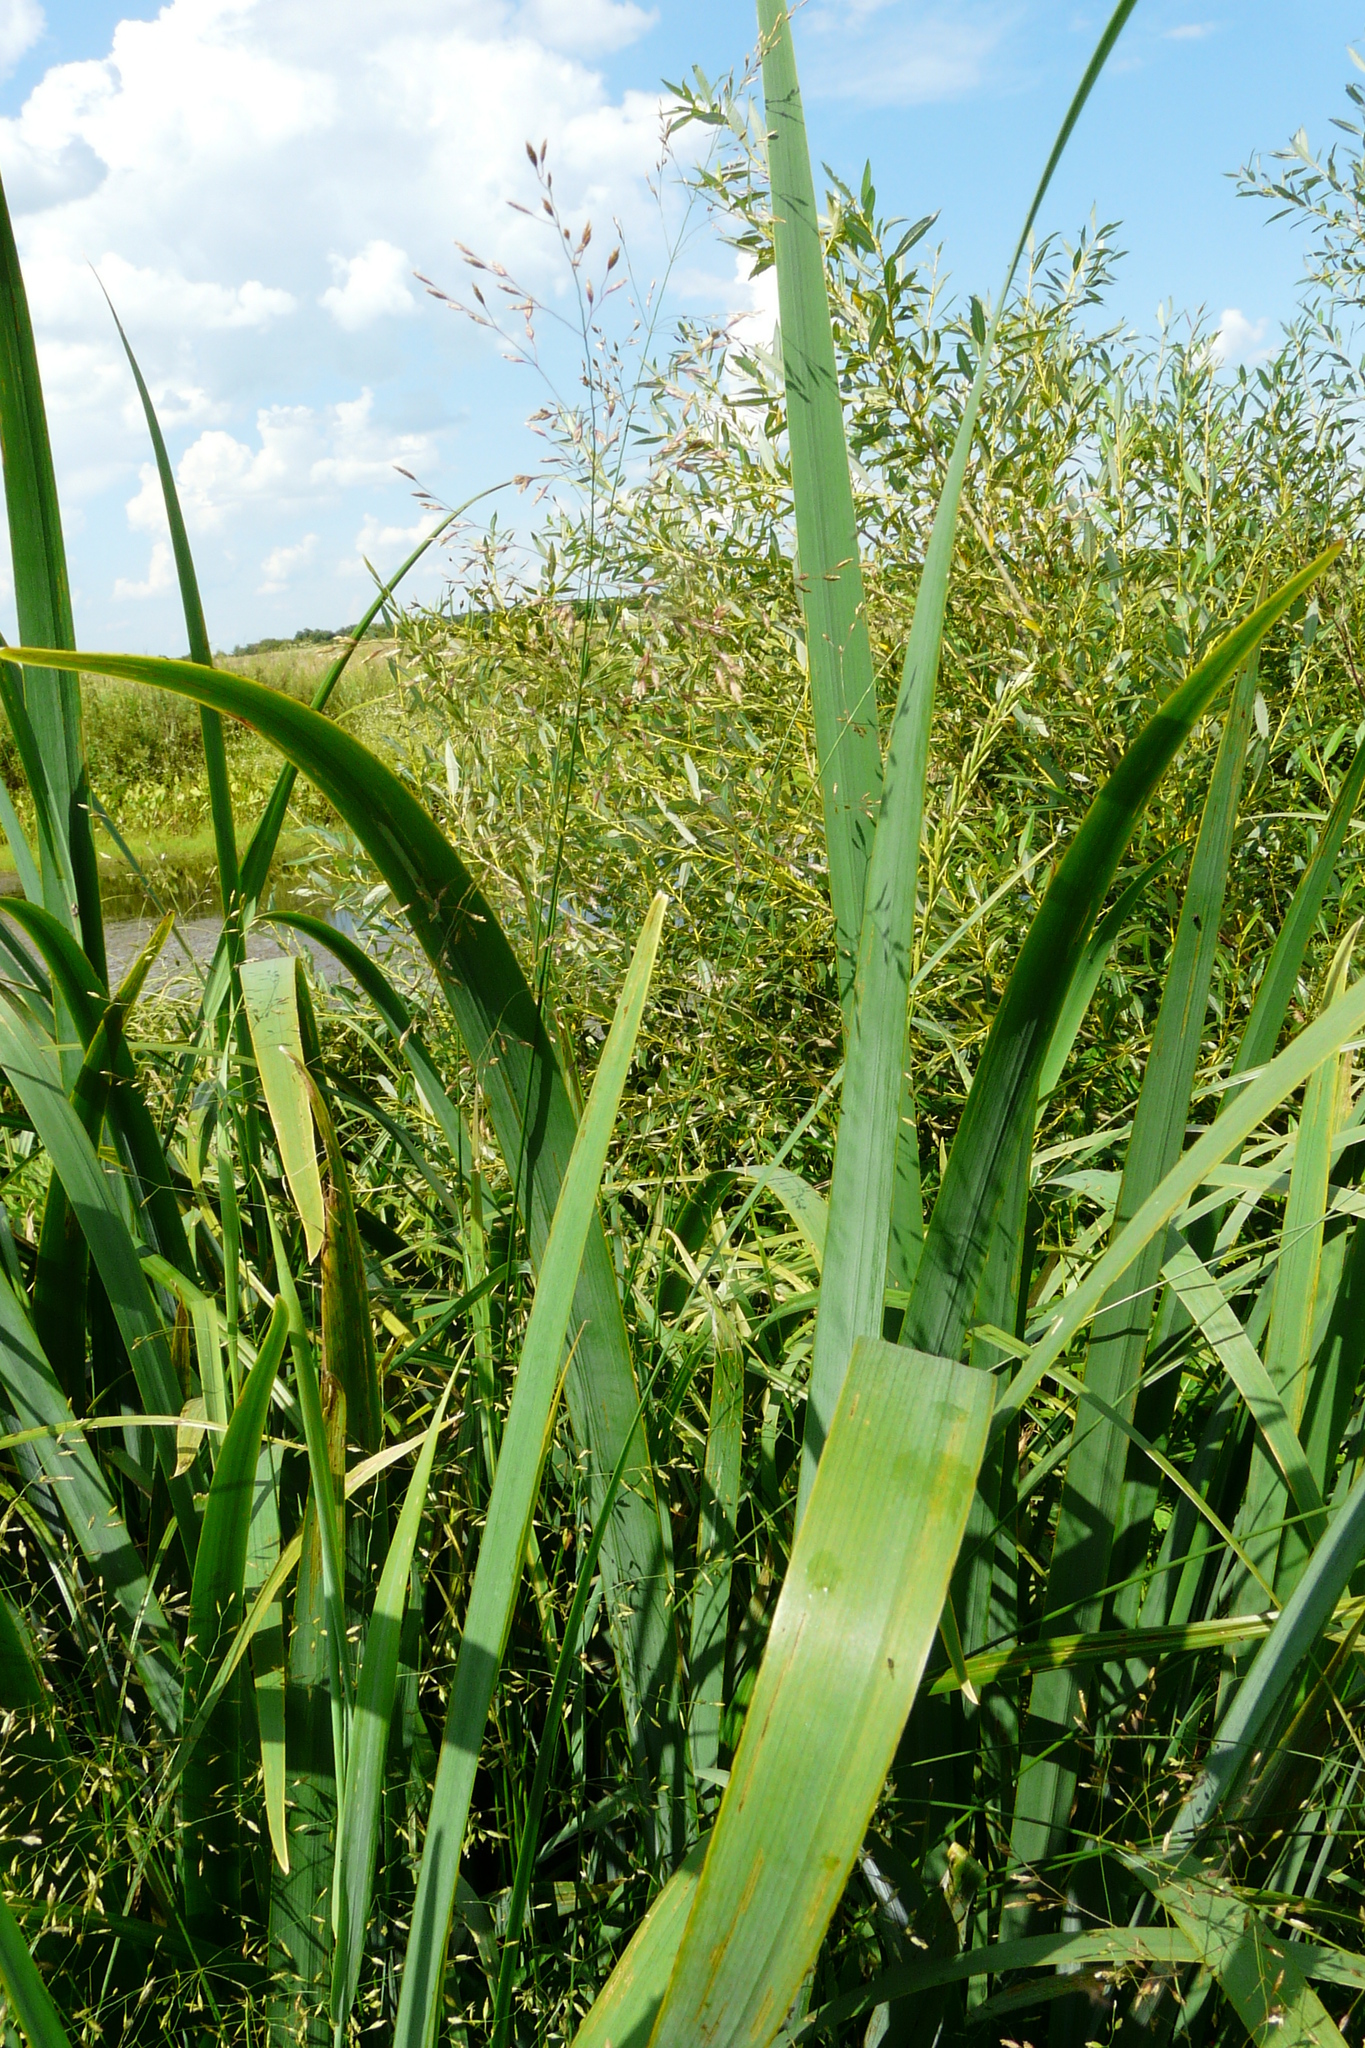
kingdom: Plantae
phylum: Tracheophyta
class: Liliopsida
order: Asparagales
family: Iridaceae
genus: Iris
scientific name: Iris pseudacorus
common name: Yellow flag
